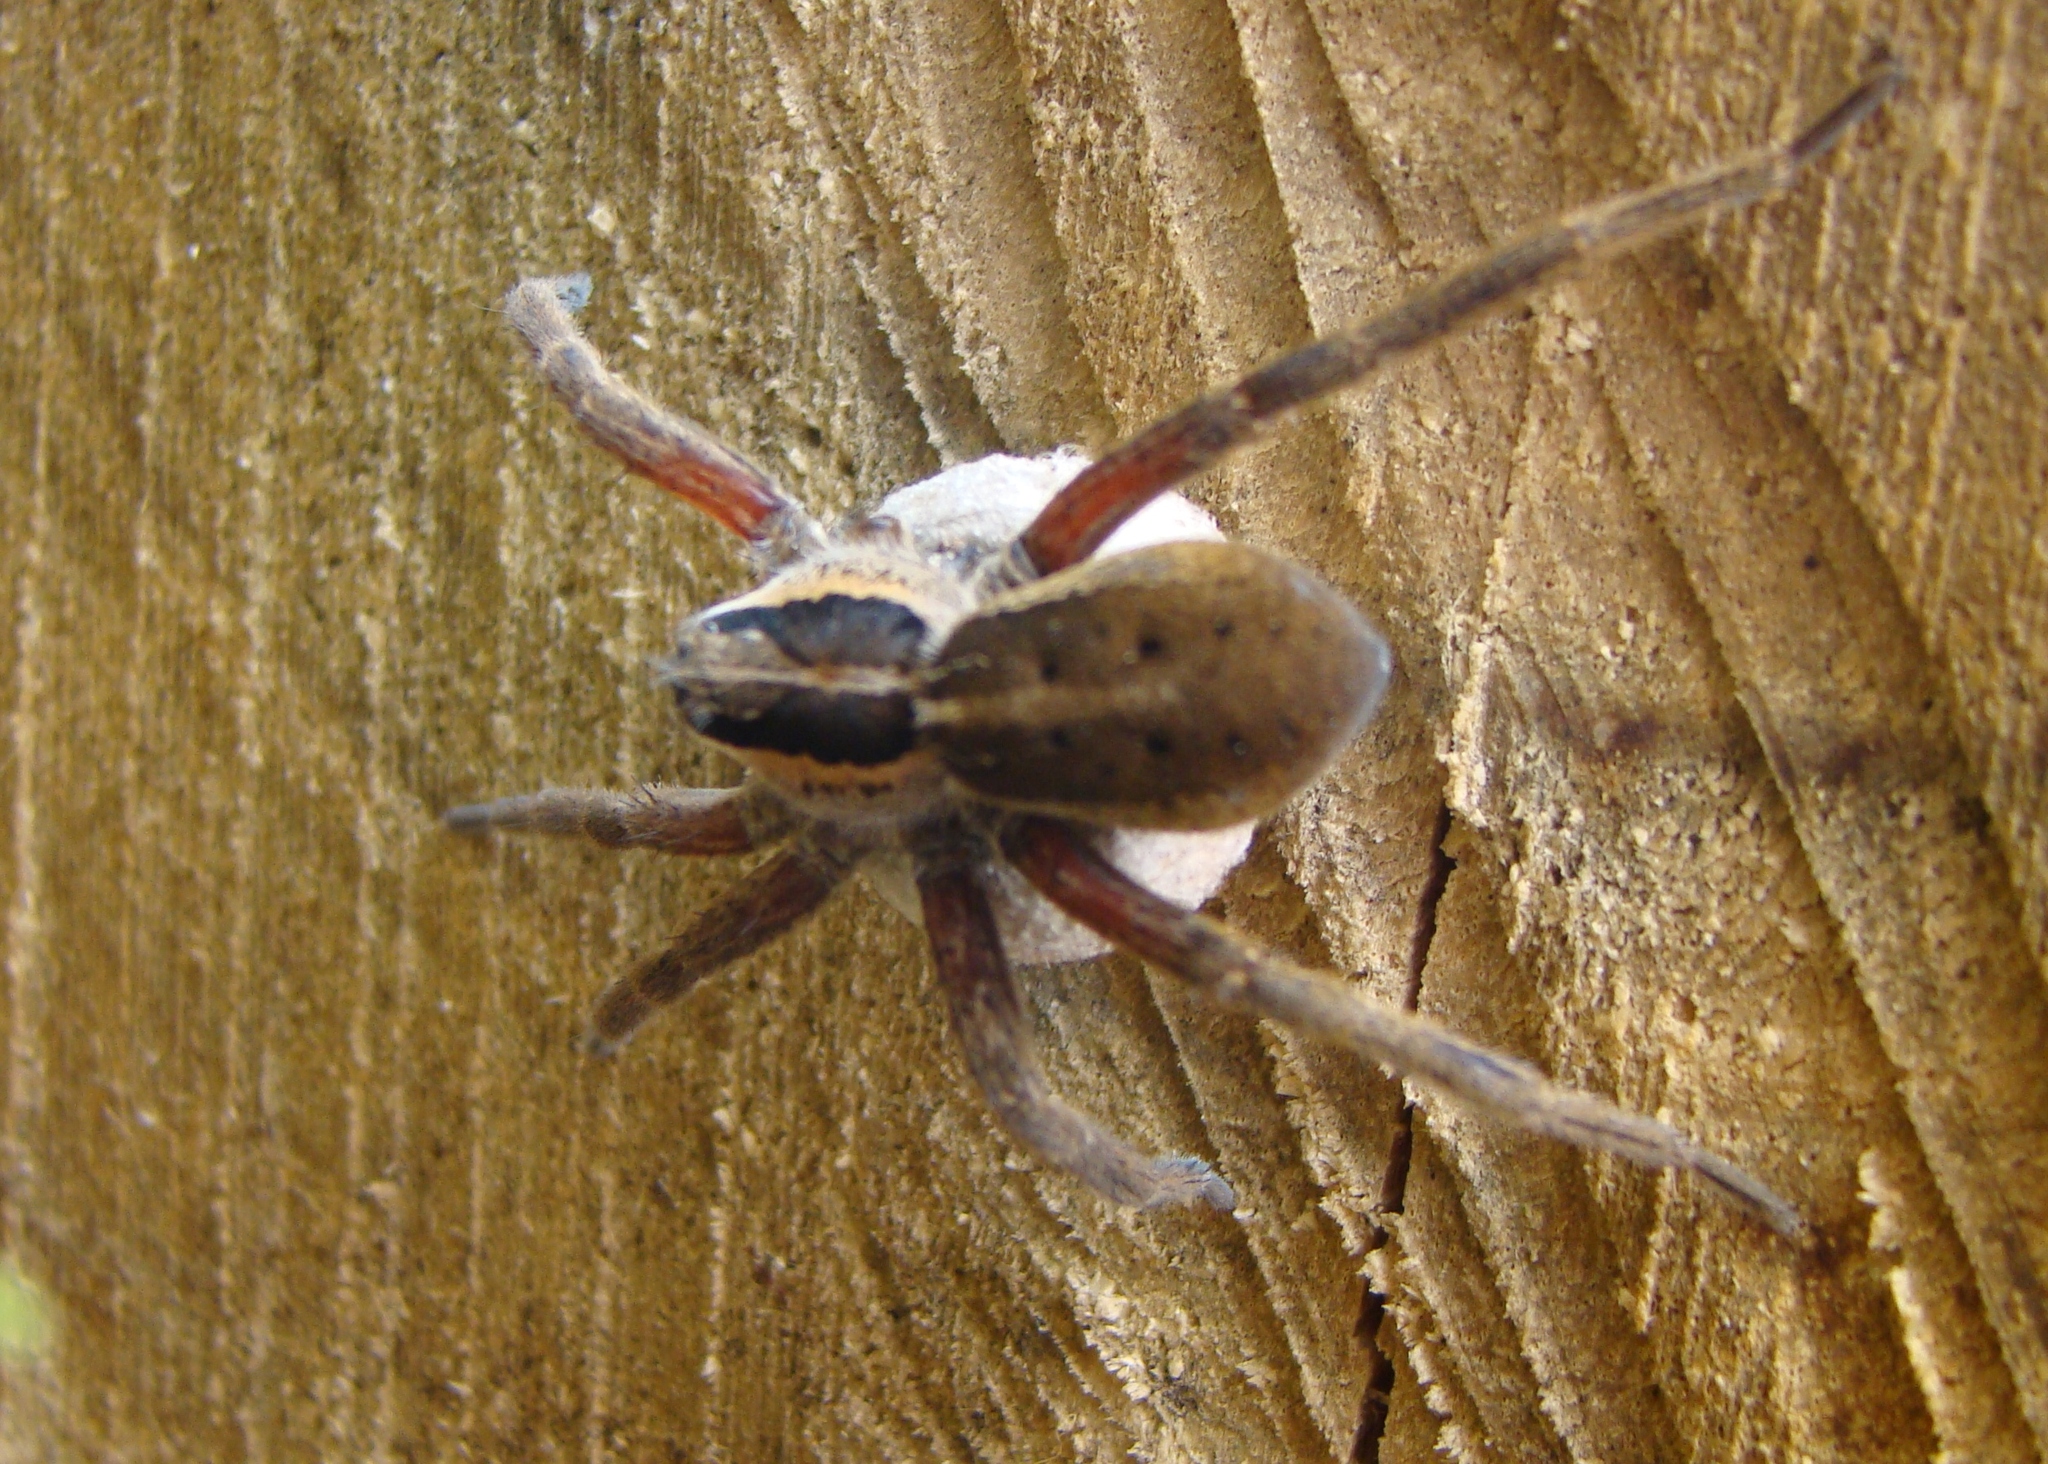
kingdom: Animalia
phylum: Arthropoda
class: Arachnida
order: Araneae
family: Pisauridae
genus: Dolomedes
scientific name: Dolomedes minor
